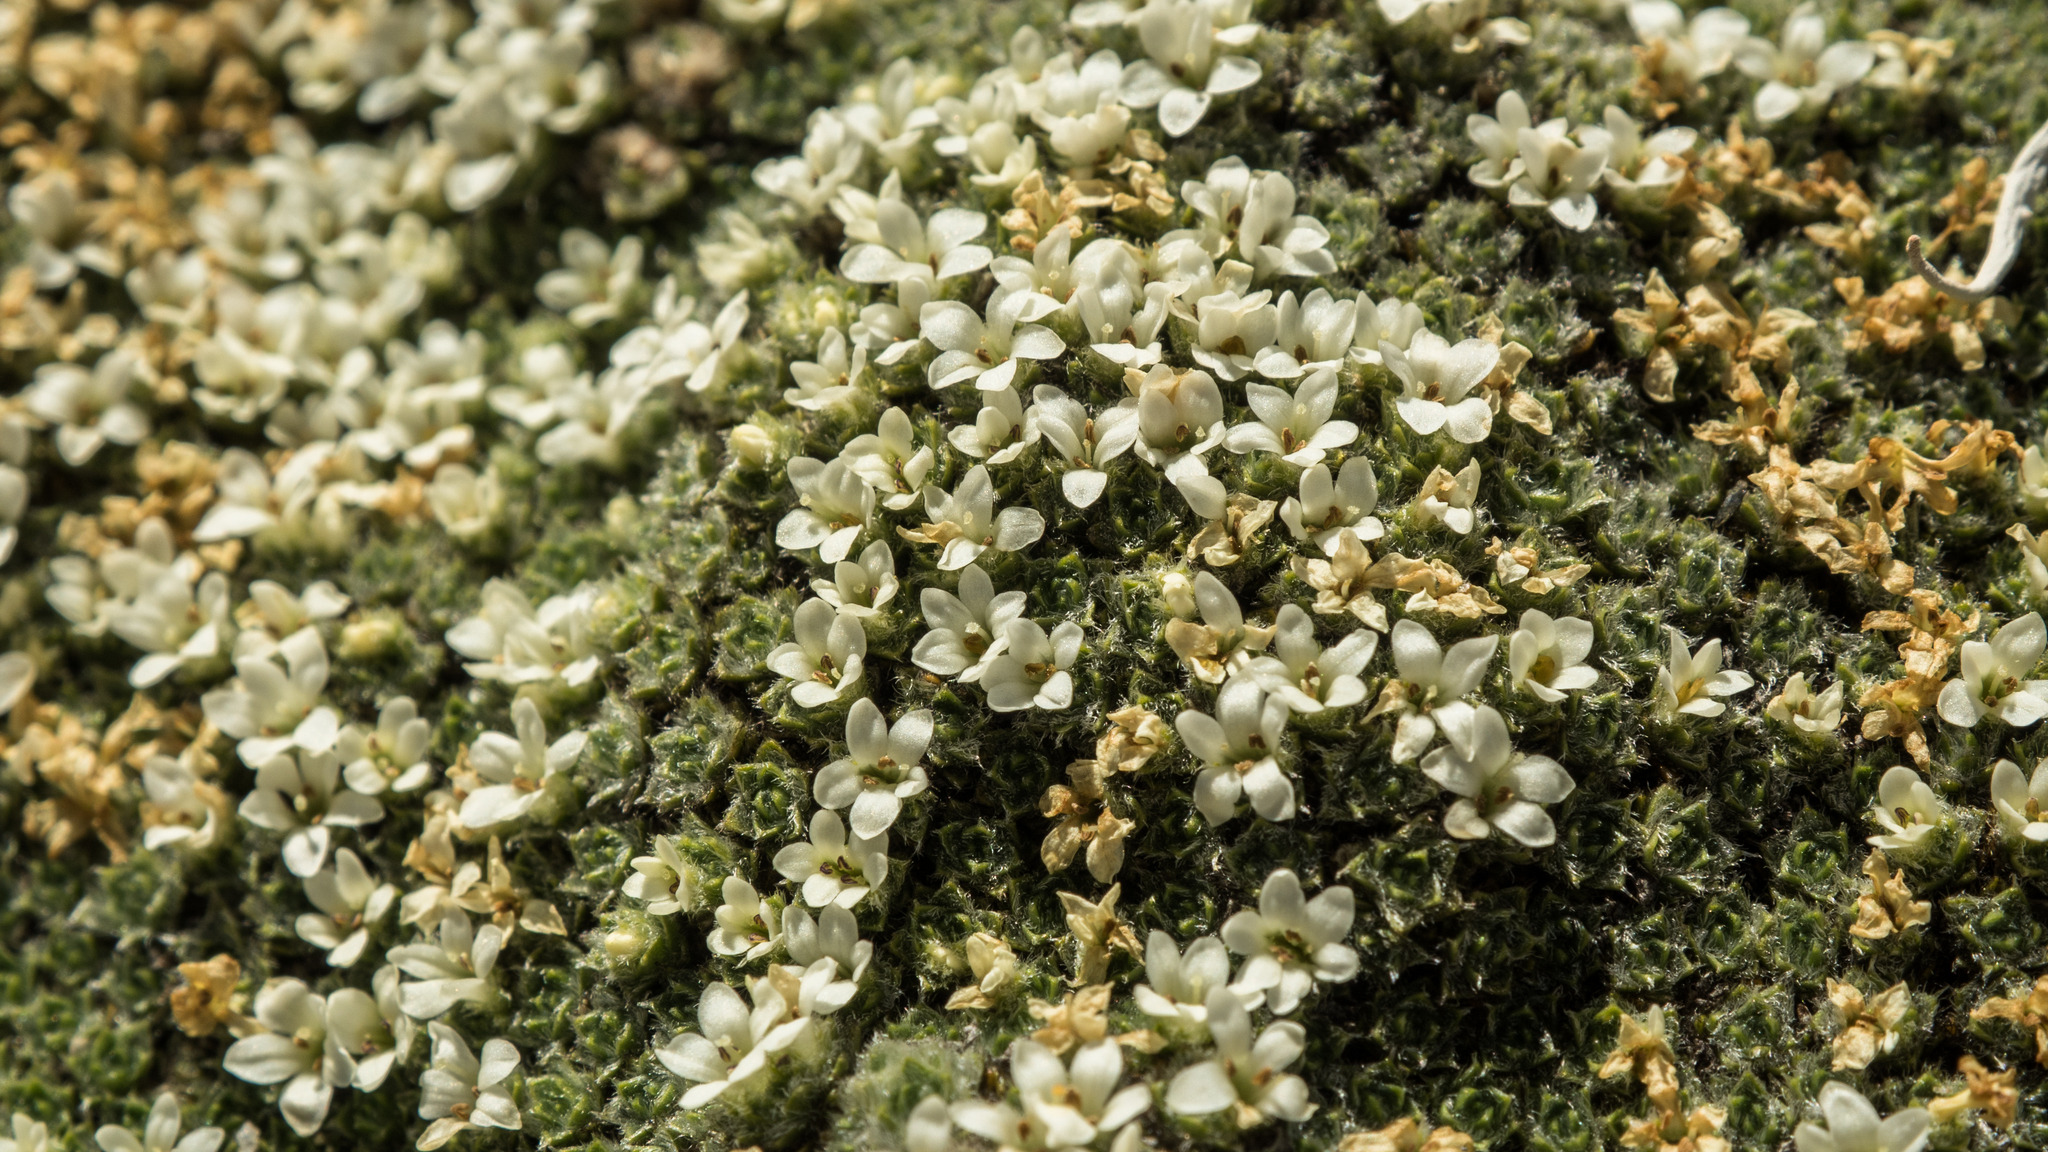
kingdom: Plantae
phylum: Tracheophyta
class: Magnoliopsida
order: Lamiales
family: Plantaginaceae
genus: Veronica
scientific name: Veronica thomsonii
